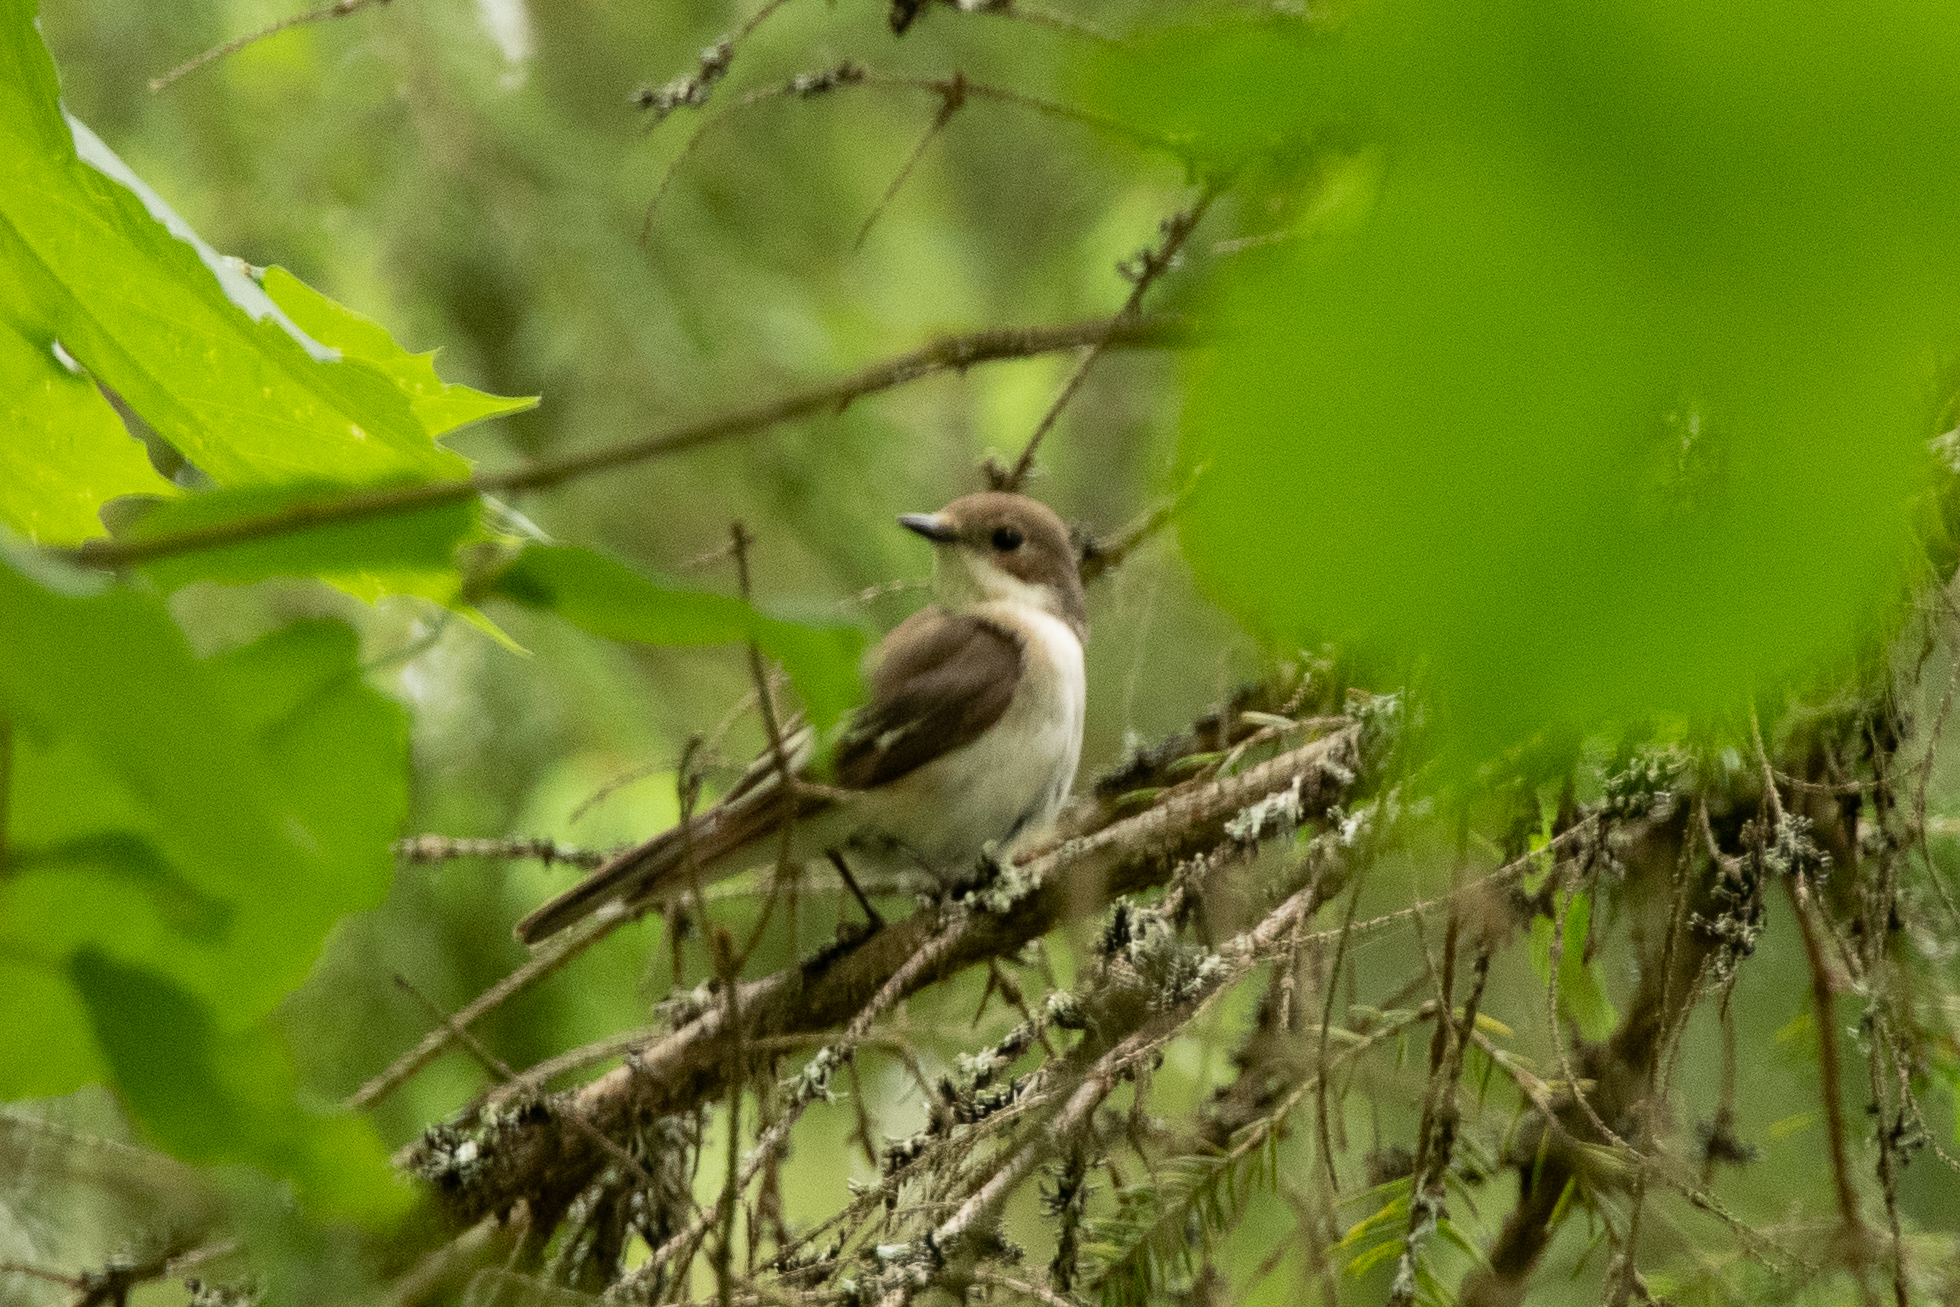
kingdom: Animalia
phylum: Chordata
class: Aves
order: Passeriformes
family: Muscicapidae
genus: Ficedula
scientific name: Ficedula hypoleuca
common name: European pied flycatcher
